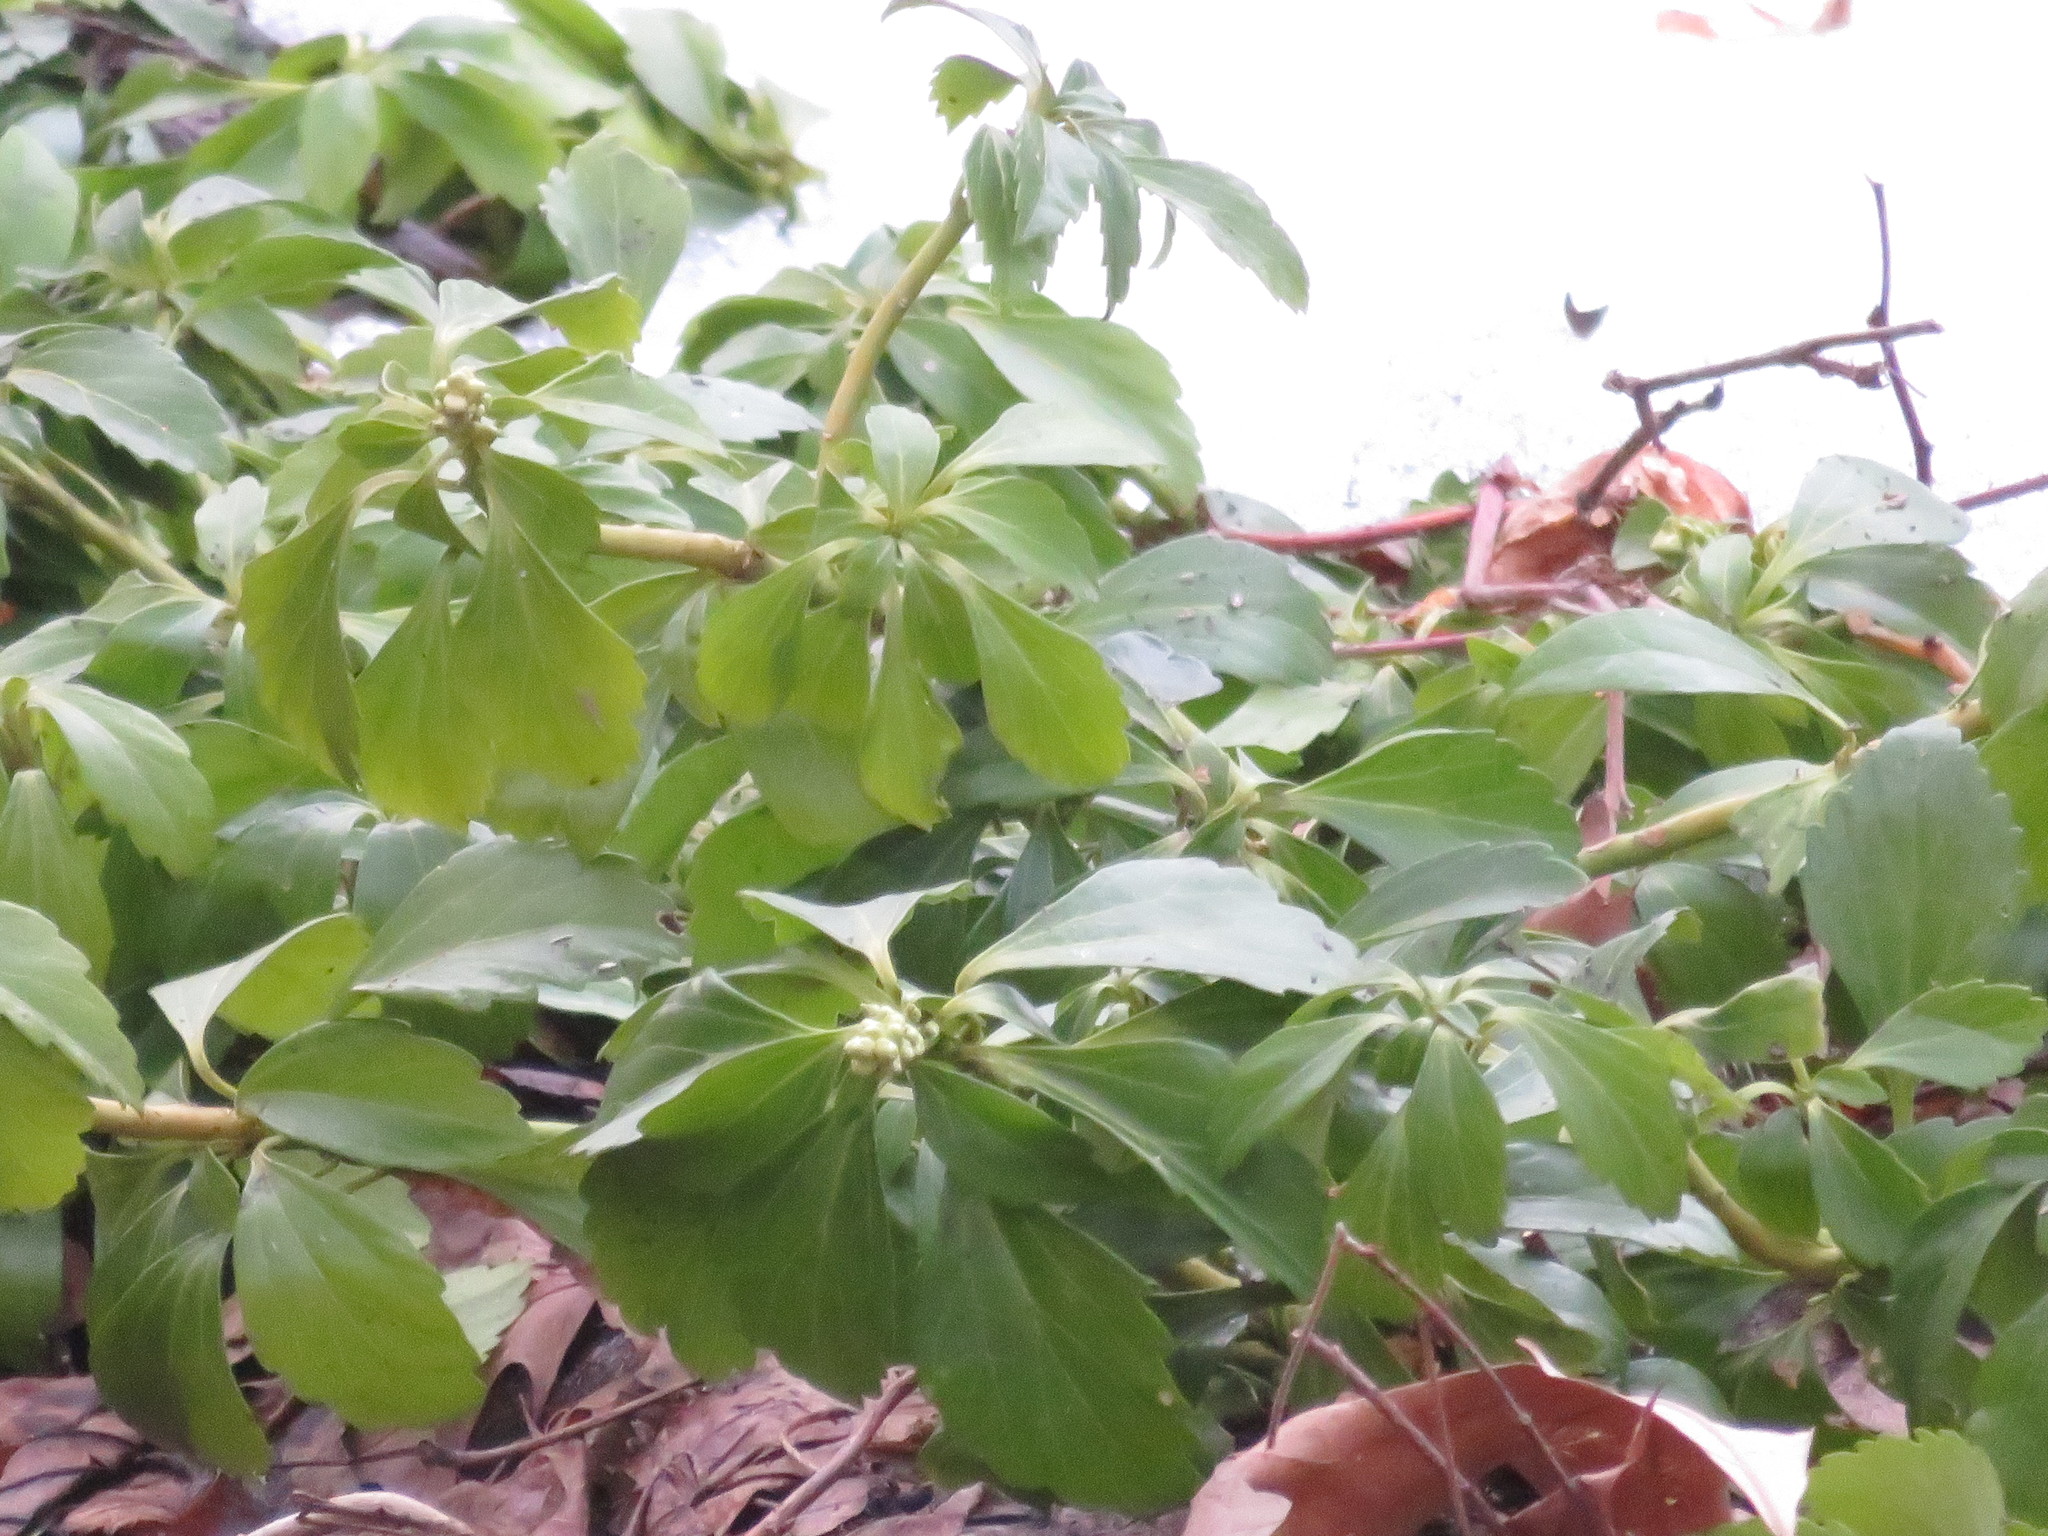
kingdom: Plantae
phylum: Tracheophyta
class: Magnoliopsida
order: Buxales
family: Buxaceae
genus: Pachysandra
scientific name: Pachysandra terminalis
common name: Japanese pachysandra
